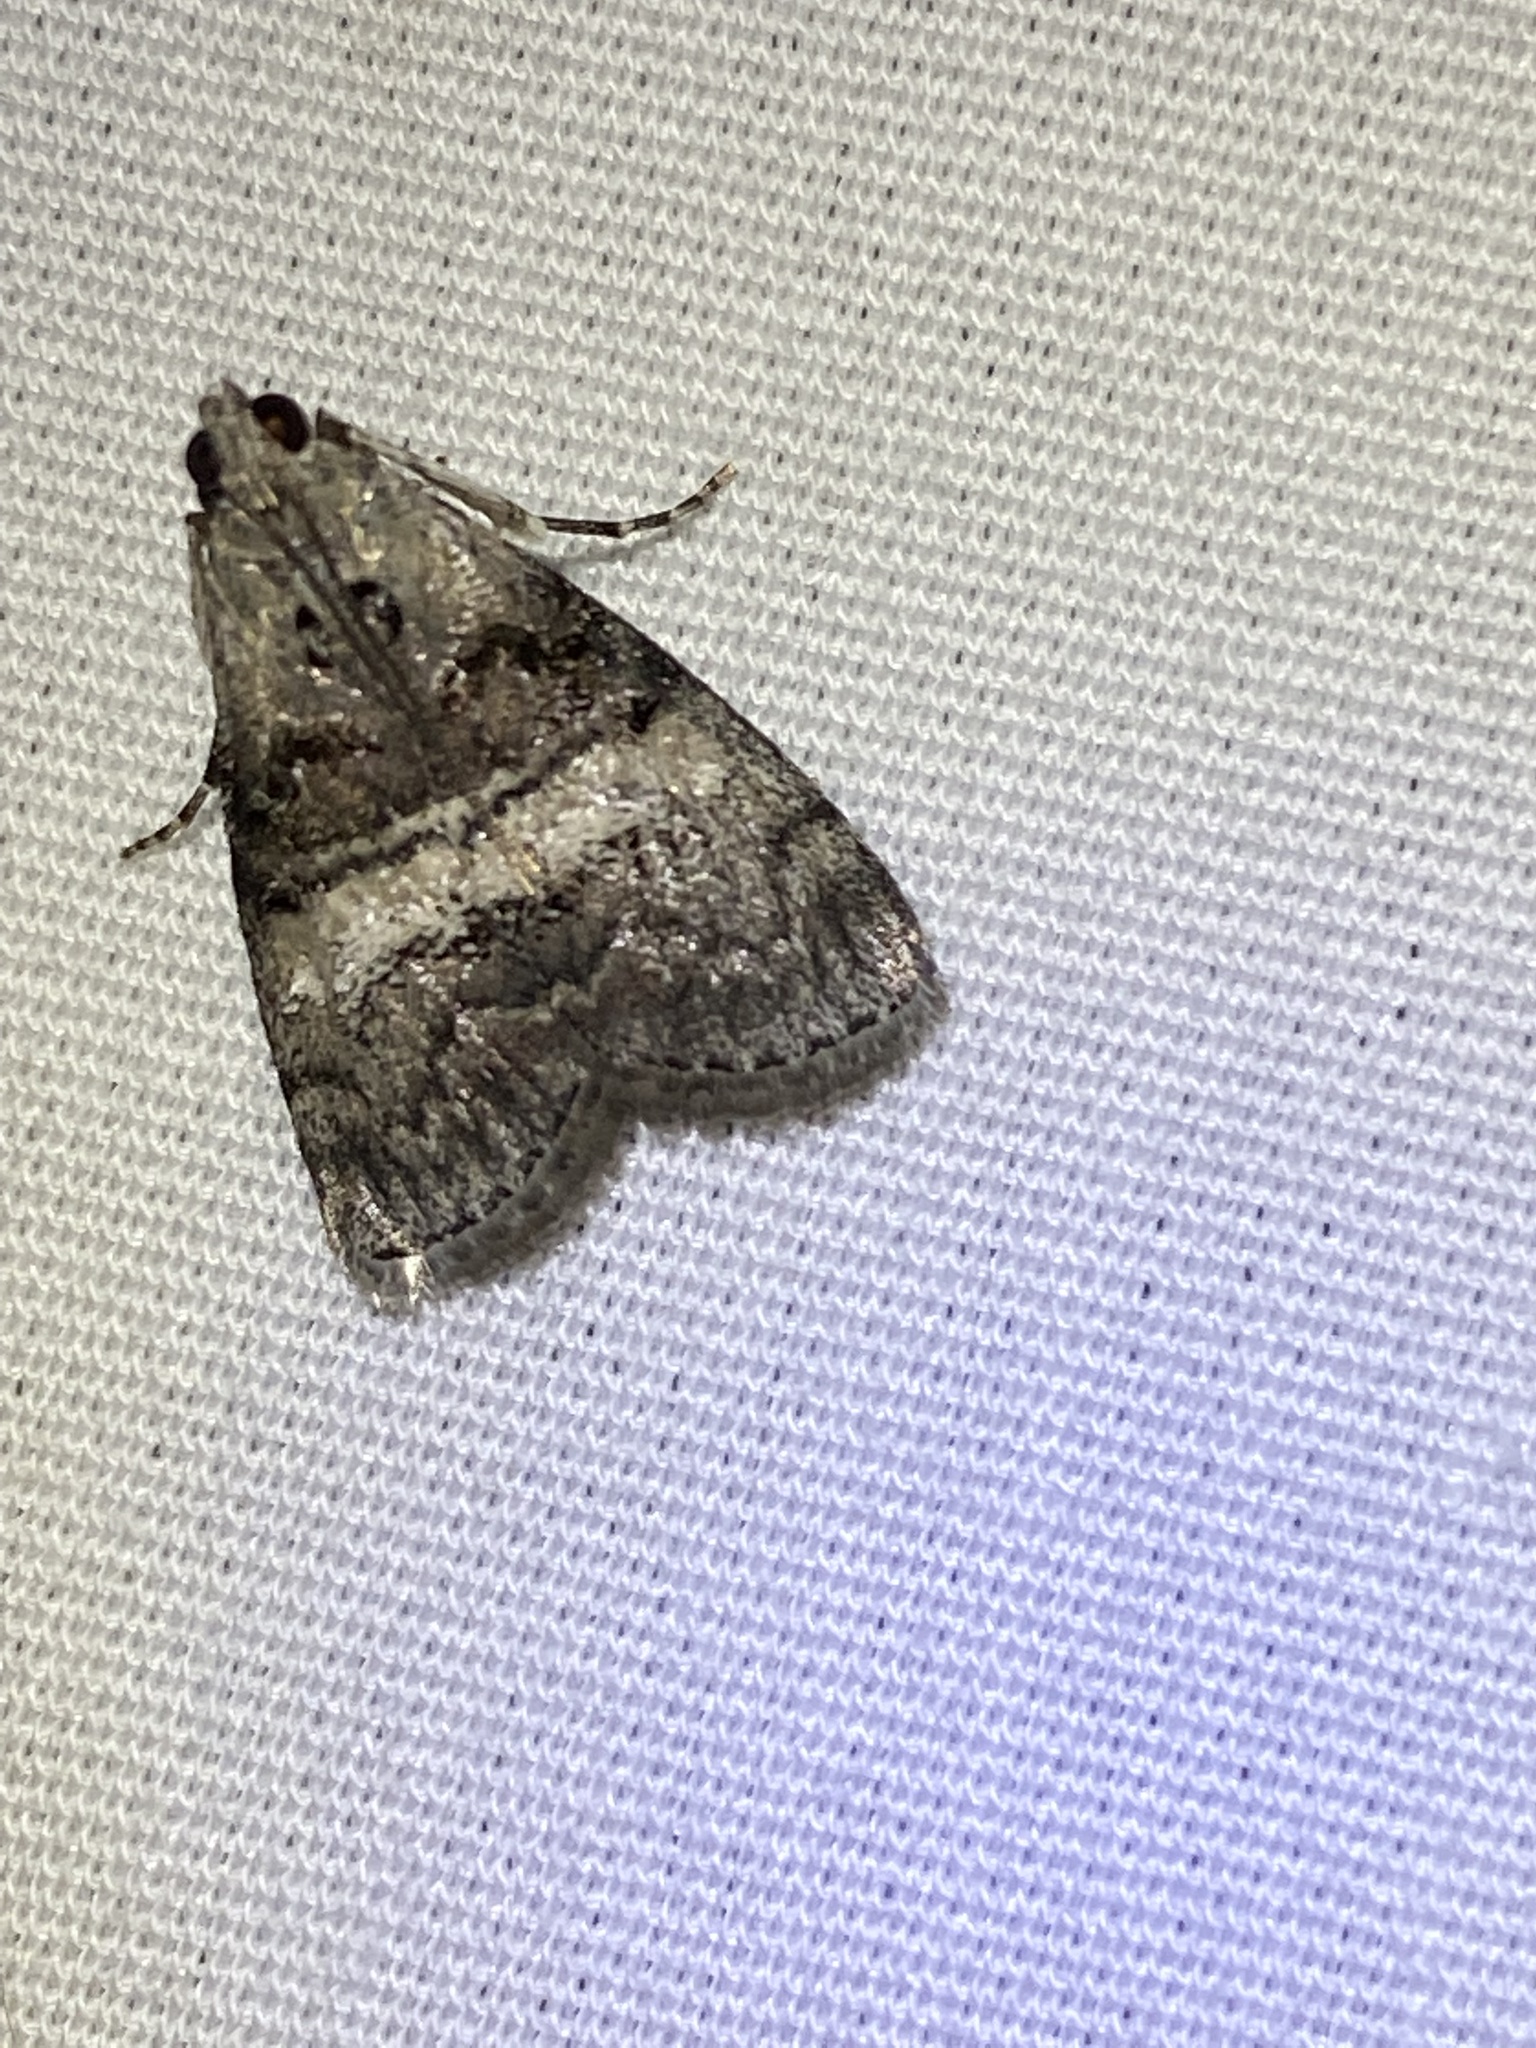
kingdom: Animalia
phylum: Arthropoda
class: Insecta
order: Lepidoptera
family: Pyralidae
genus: Pococera
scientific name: Pococera asperatella
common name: Maple webworm moth
